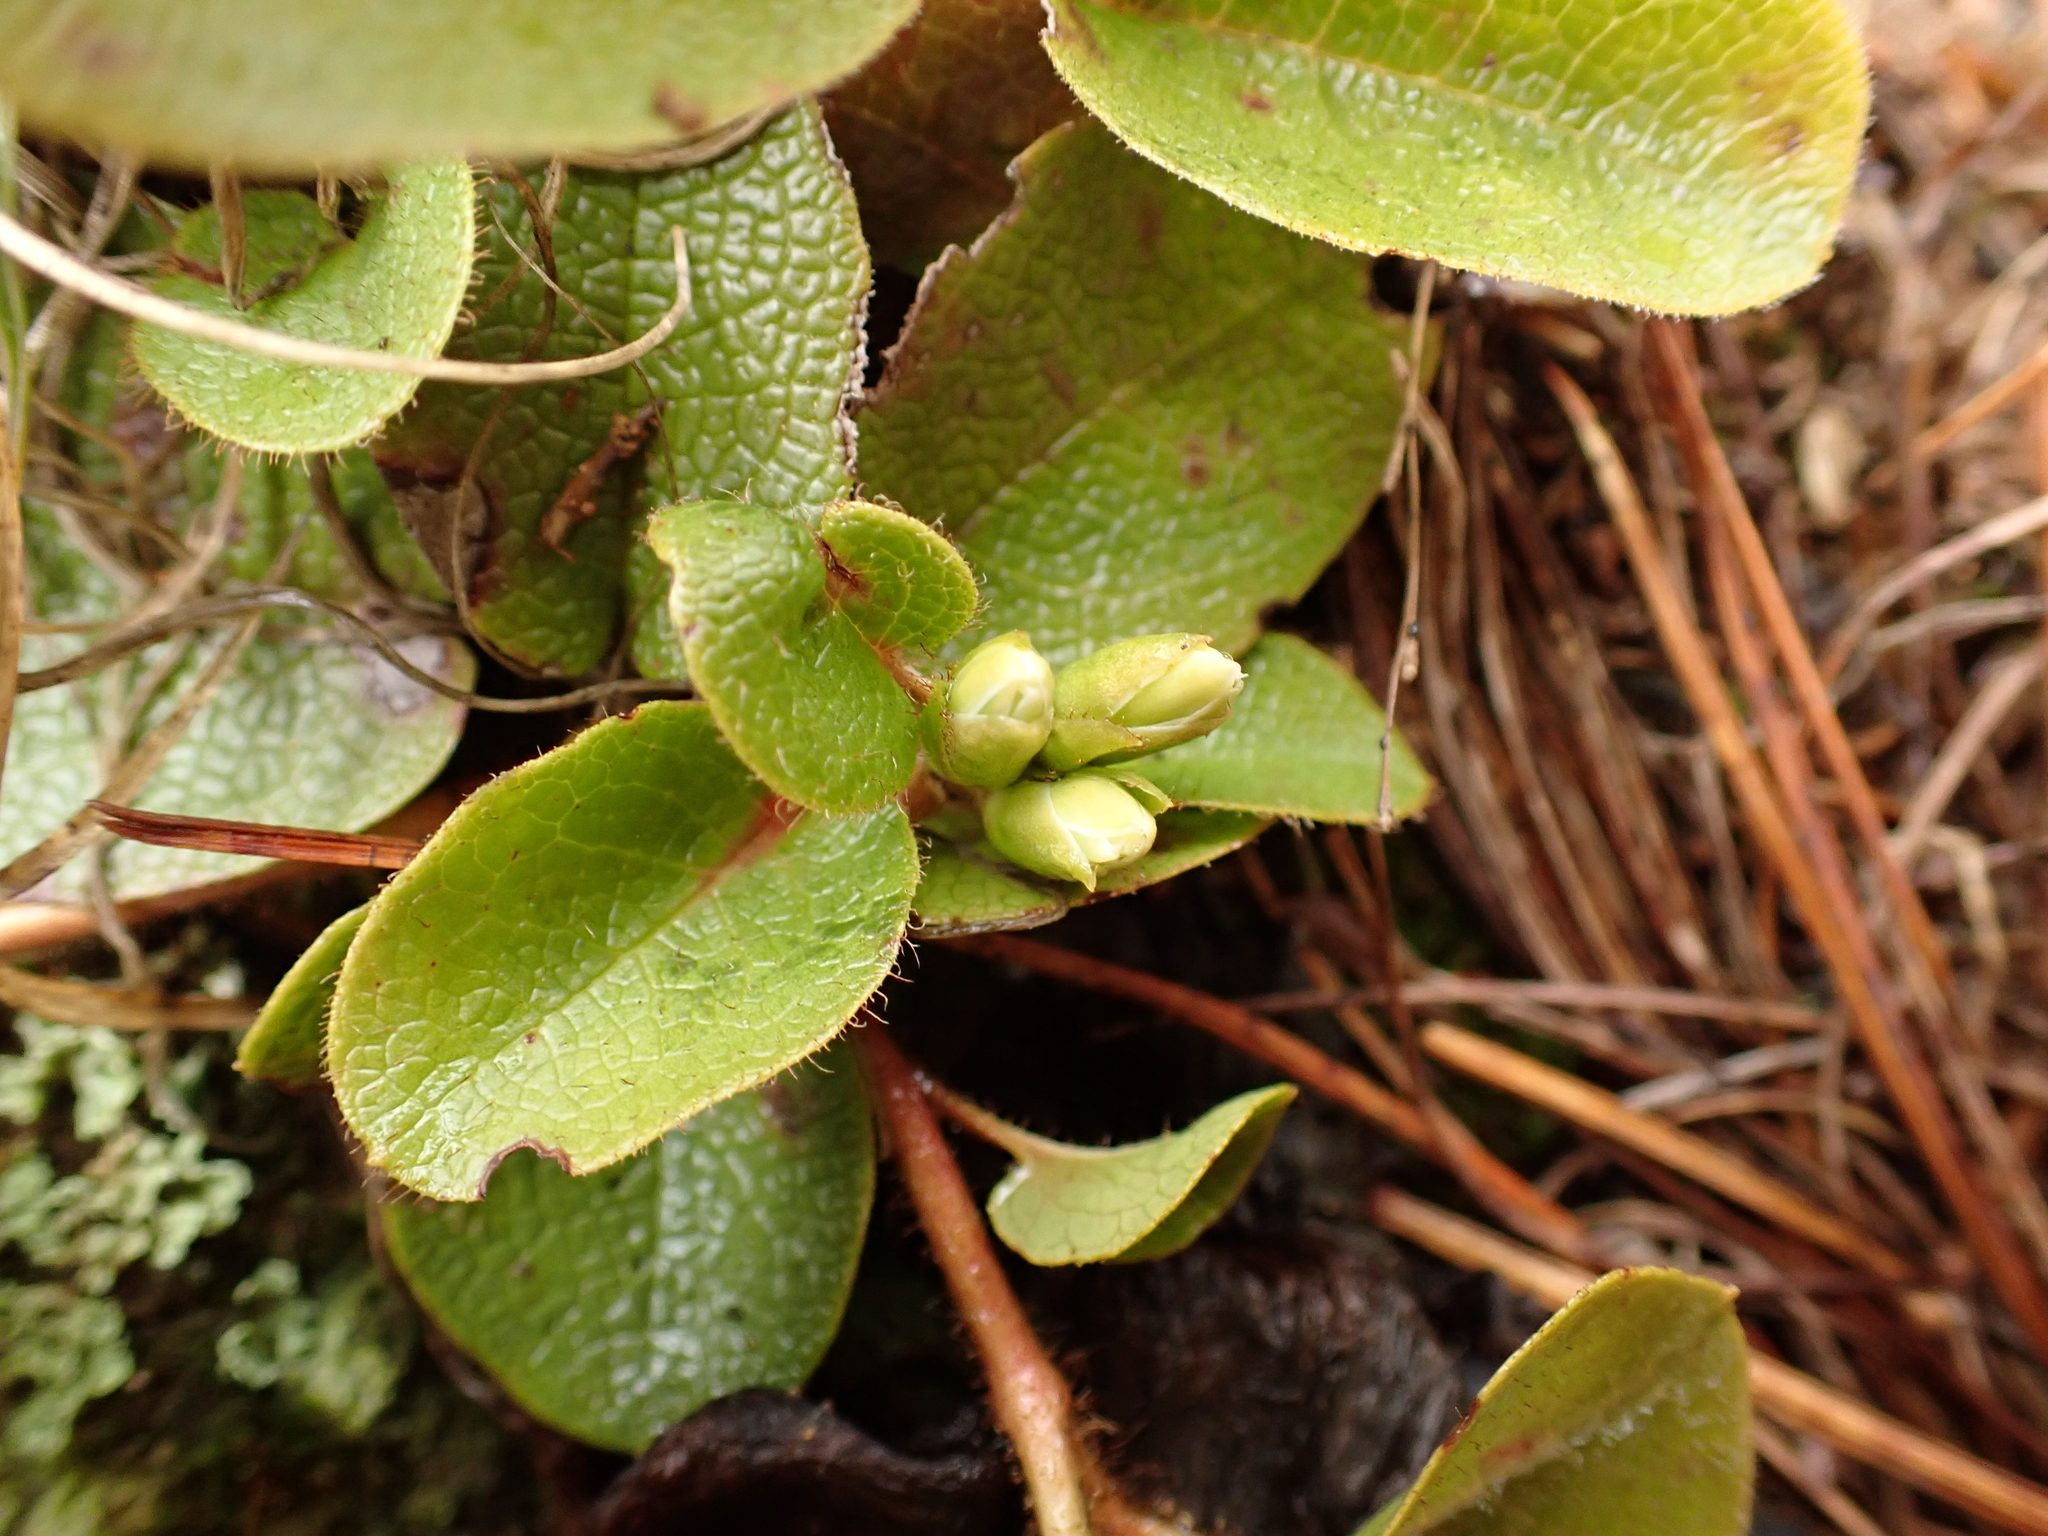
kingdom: Plantae
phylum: Tracheophyta
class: Magnoliopsida
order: Ericales
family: Ericaceae
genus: Epigaea
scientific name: Epigaea repens
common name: Gravelroot
